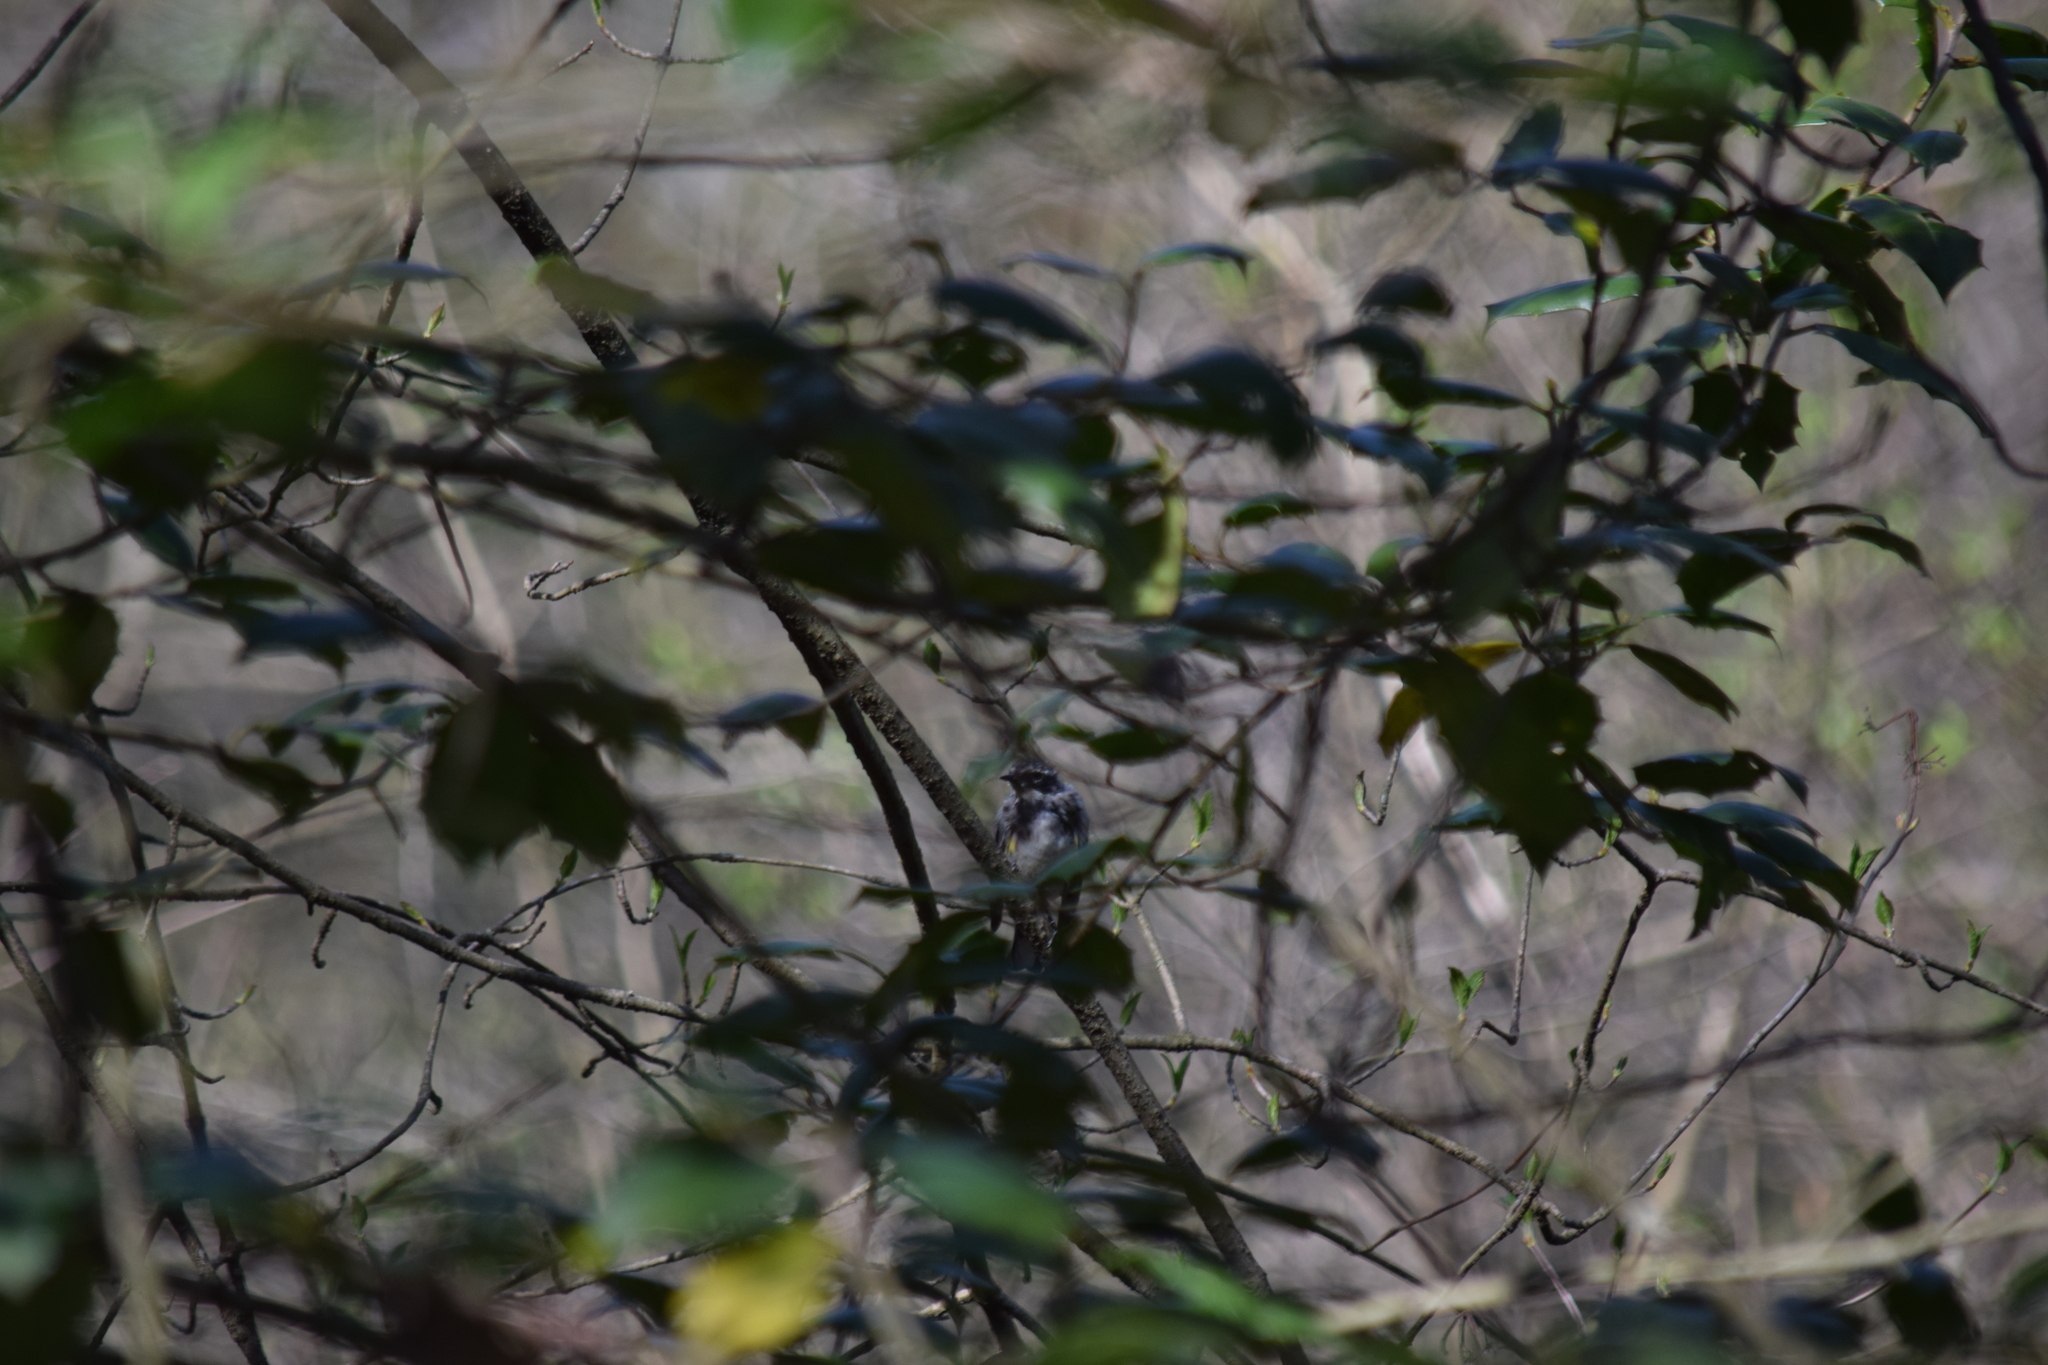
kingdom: Animalia
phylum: Chordata
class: Aves
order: Passeriformes
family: Parulidae
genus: Setophaga
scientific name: Setophaga coronata
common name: Myrtle warbler
